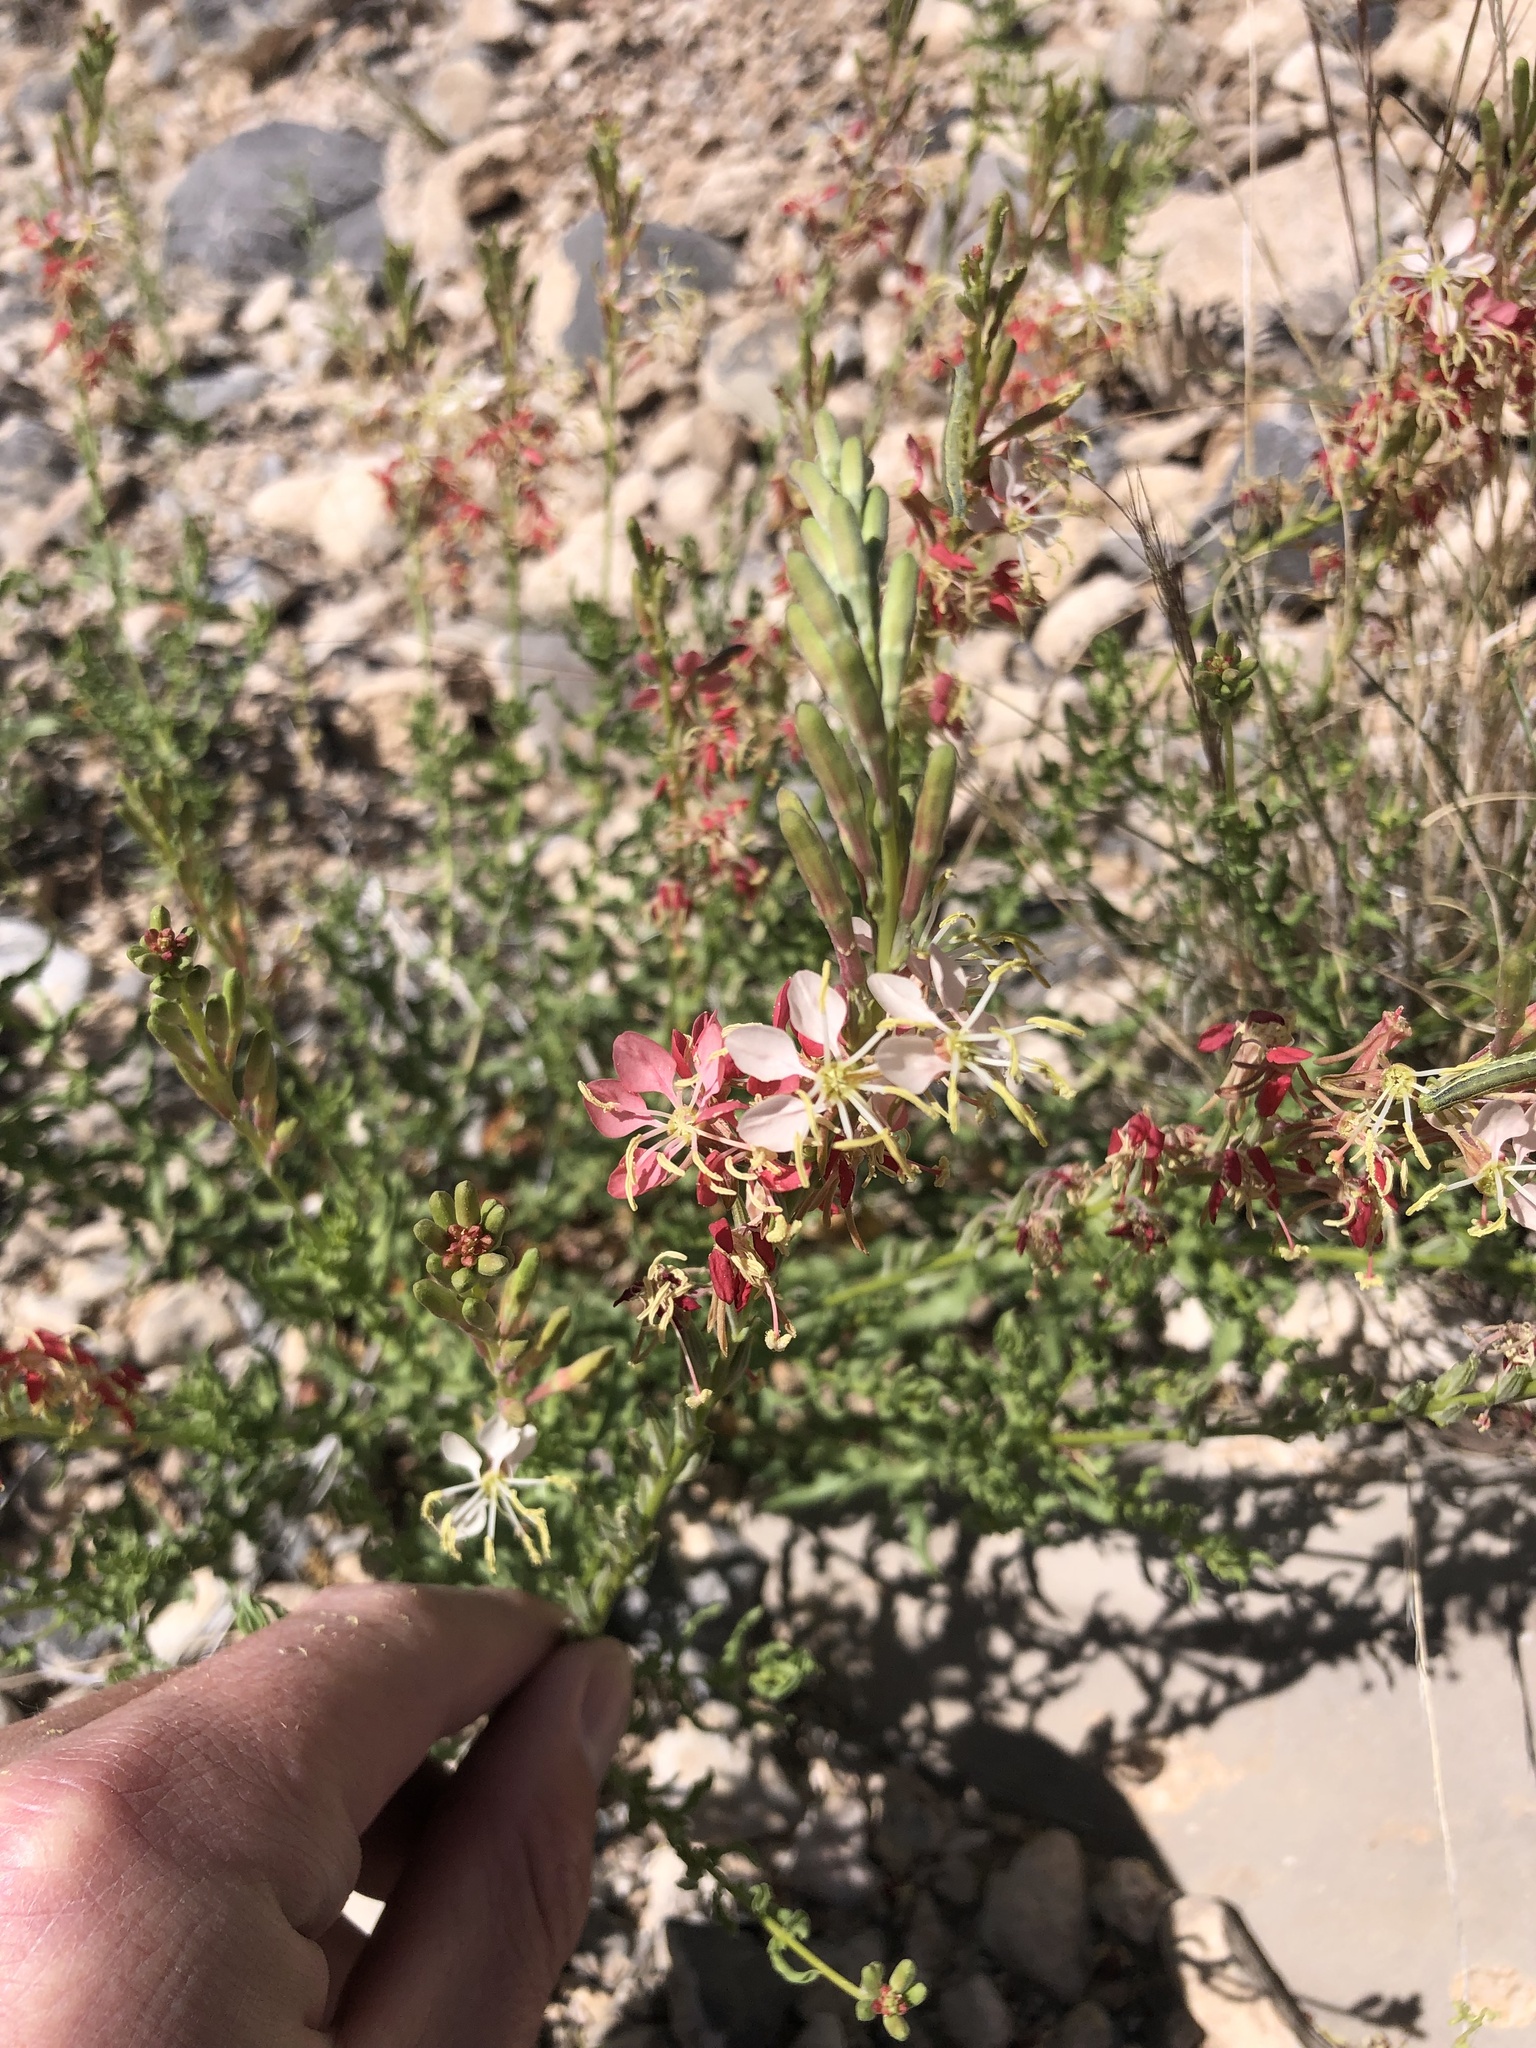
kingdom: Plantae
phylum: Tracheophyta
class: Magnoliopsida
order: Myrtales
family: Onagraceae
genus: Oenothera
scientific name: Oenothera suffrutescens
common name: Scarlet beeblossom
